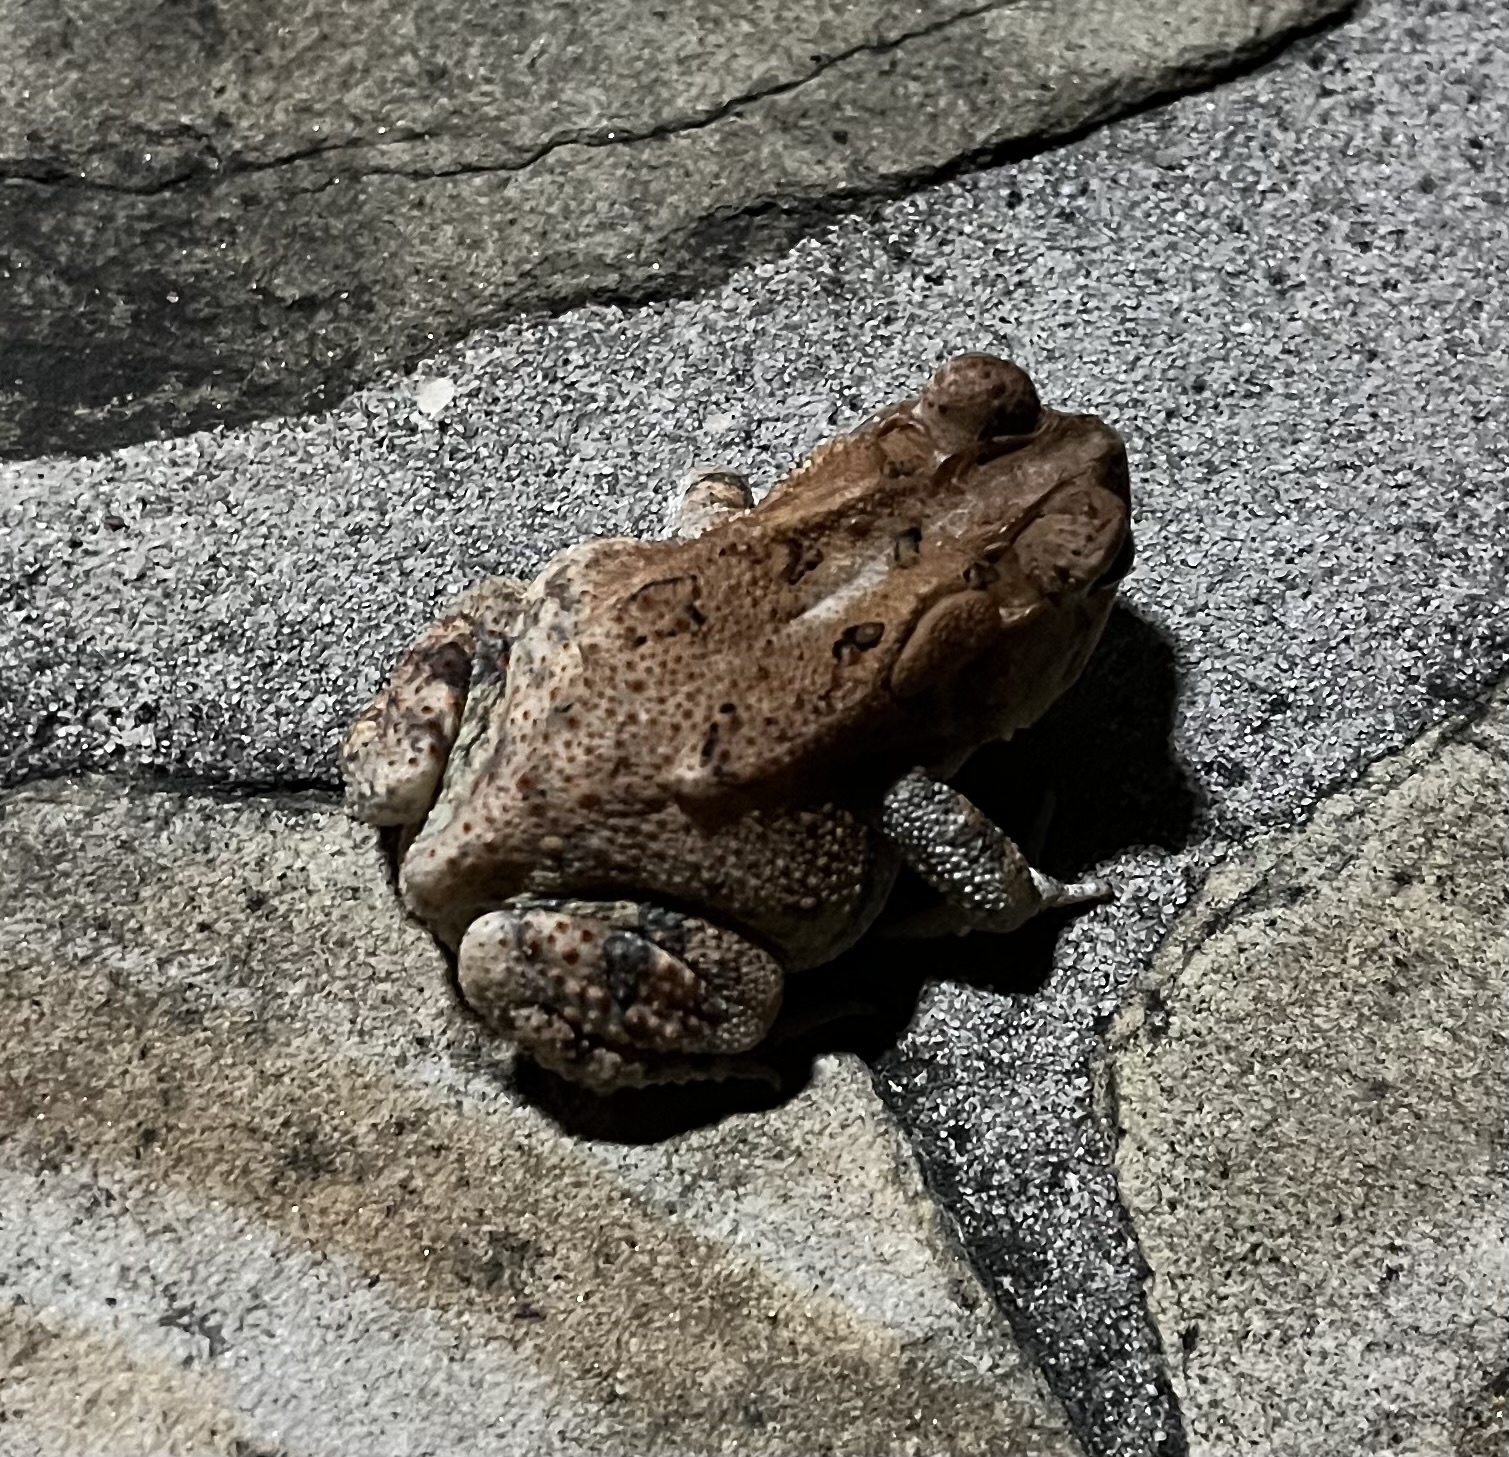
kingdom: Animalia
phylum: Chordata
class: Amphibia
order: Anura
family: Bufonidae
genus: Anaxyrus
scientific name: Anaxyrus terrestris
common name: Southern toad
